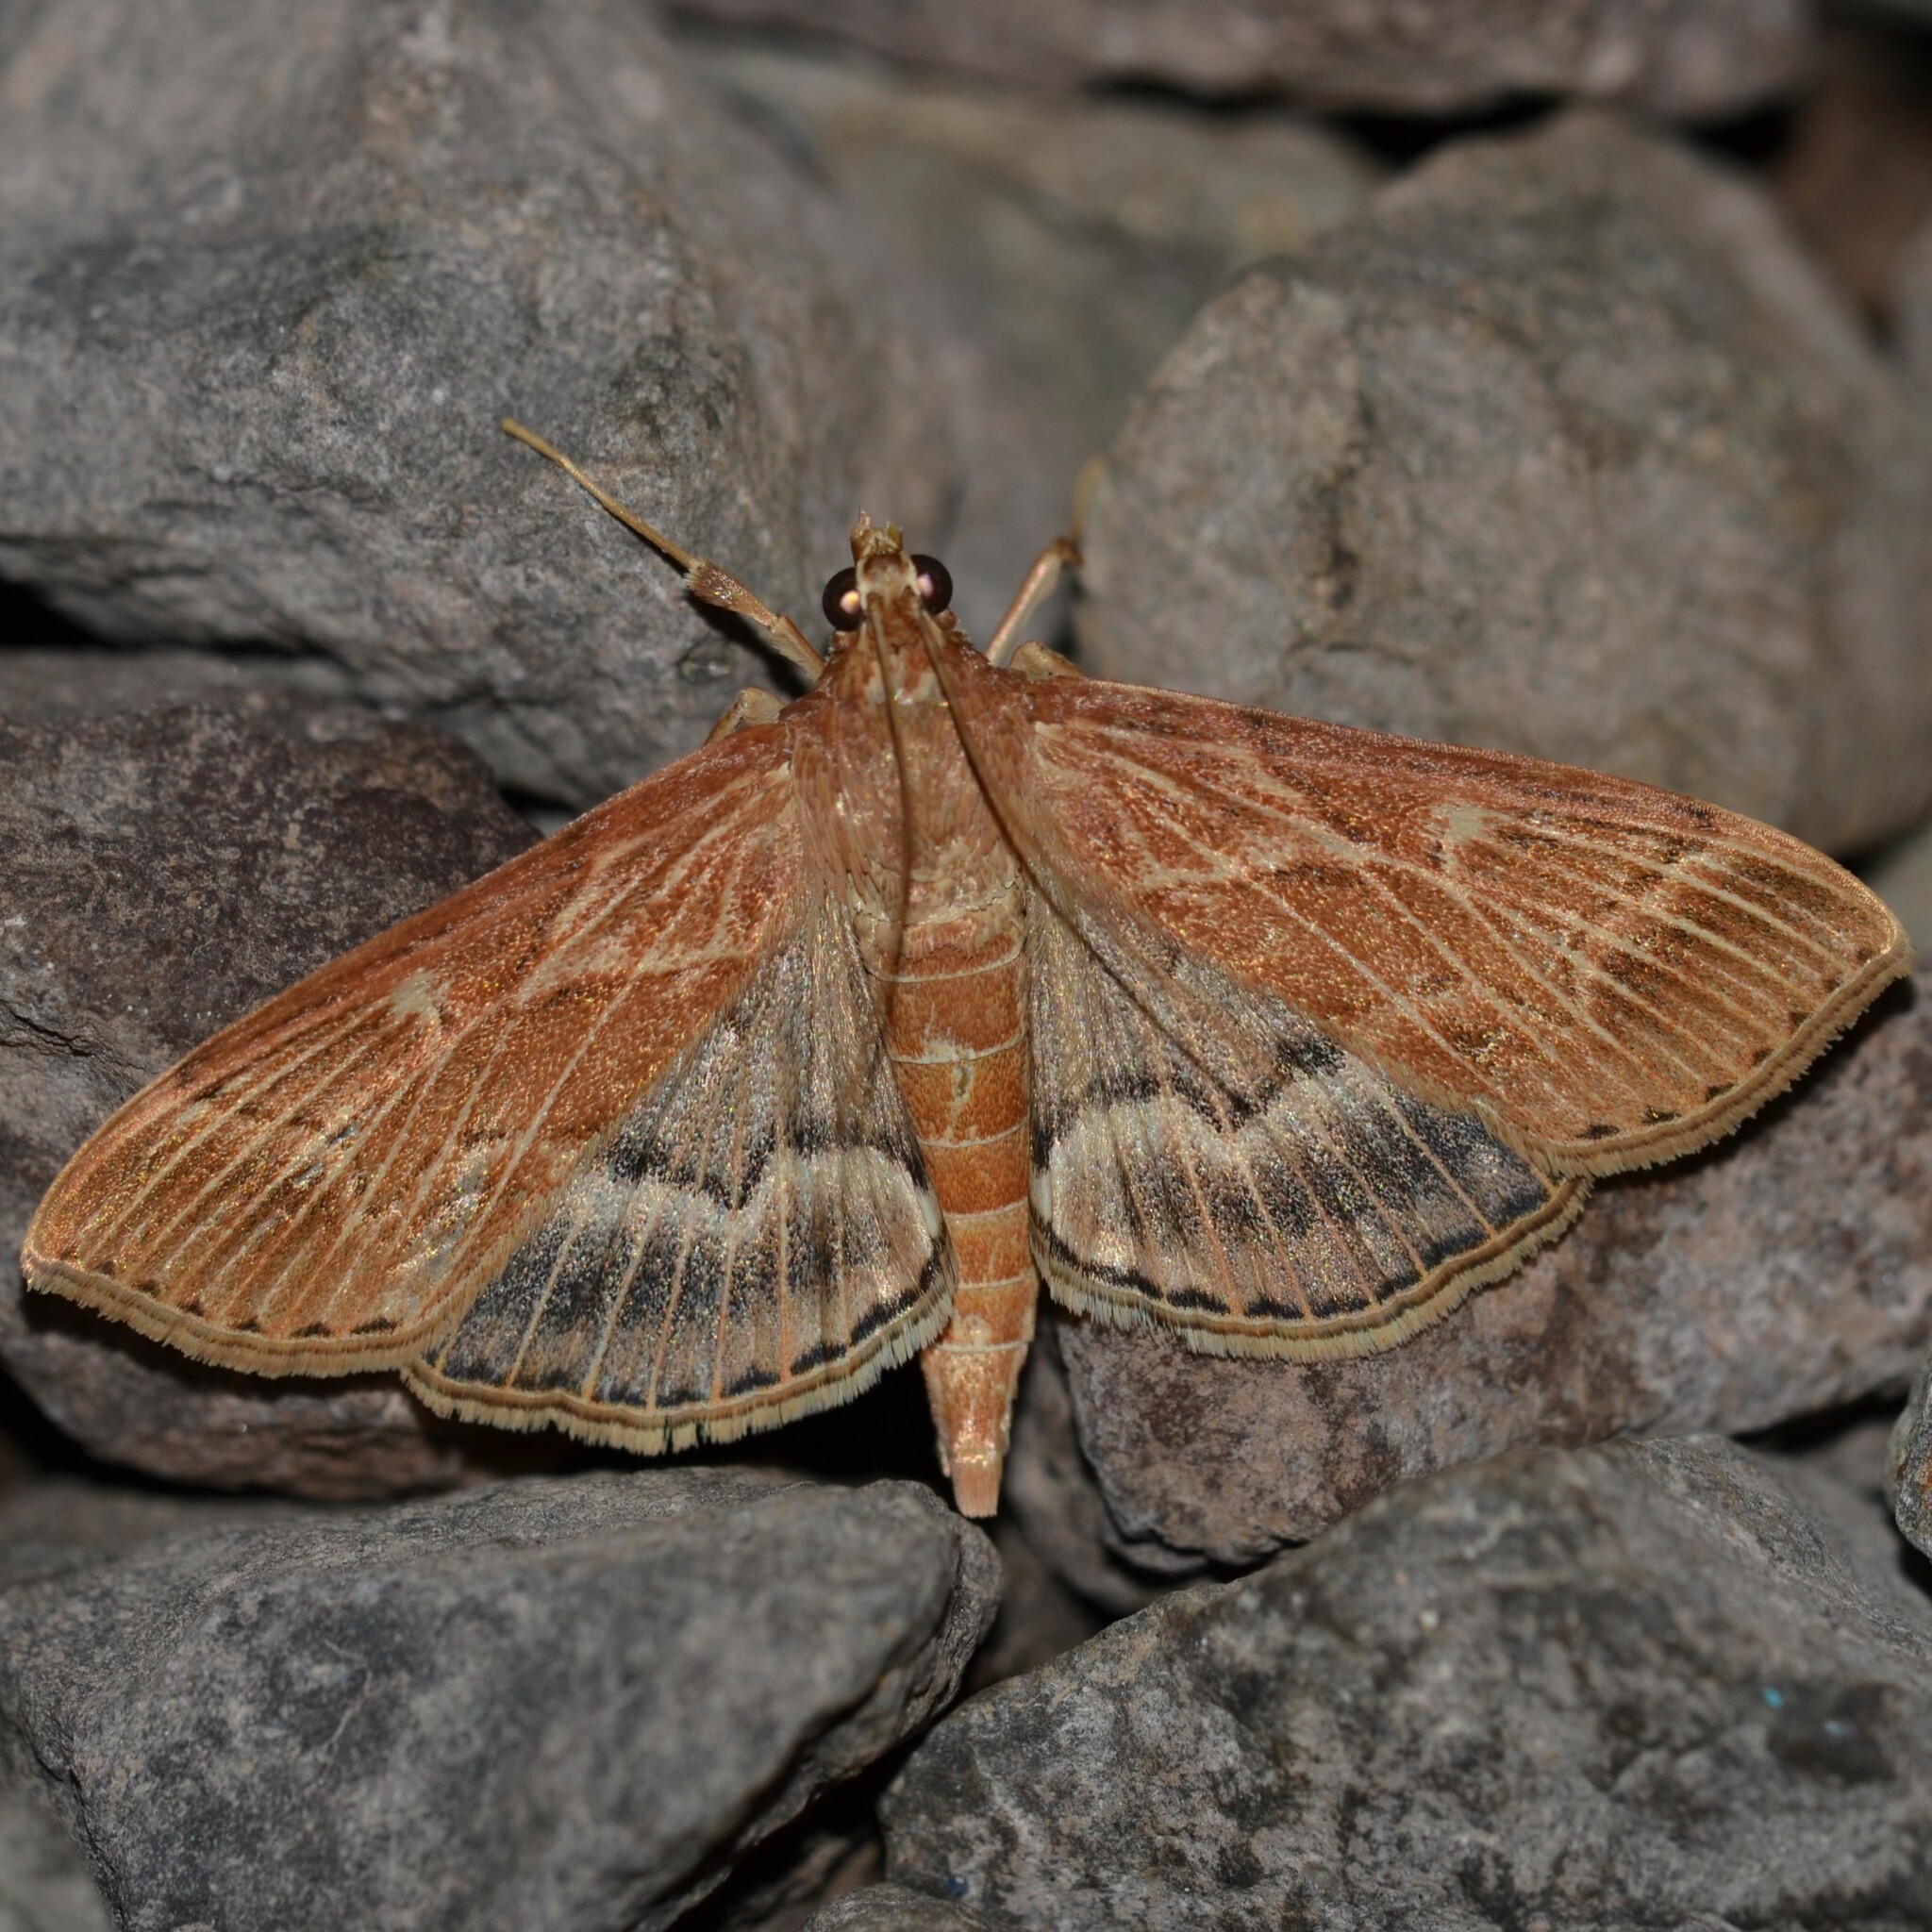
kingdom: Animalia
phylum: Arthropoda
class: Insecta
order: Lepidoptera
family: Crambidae
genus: Omiodes
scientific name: Omiodes blackburni
